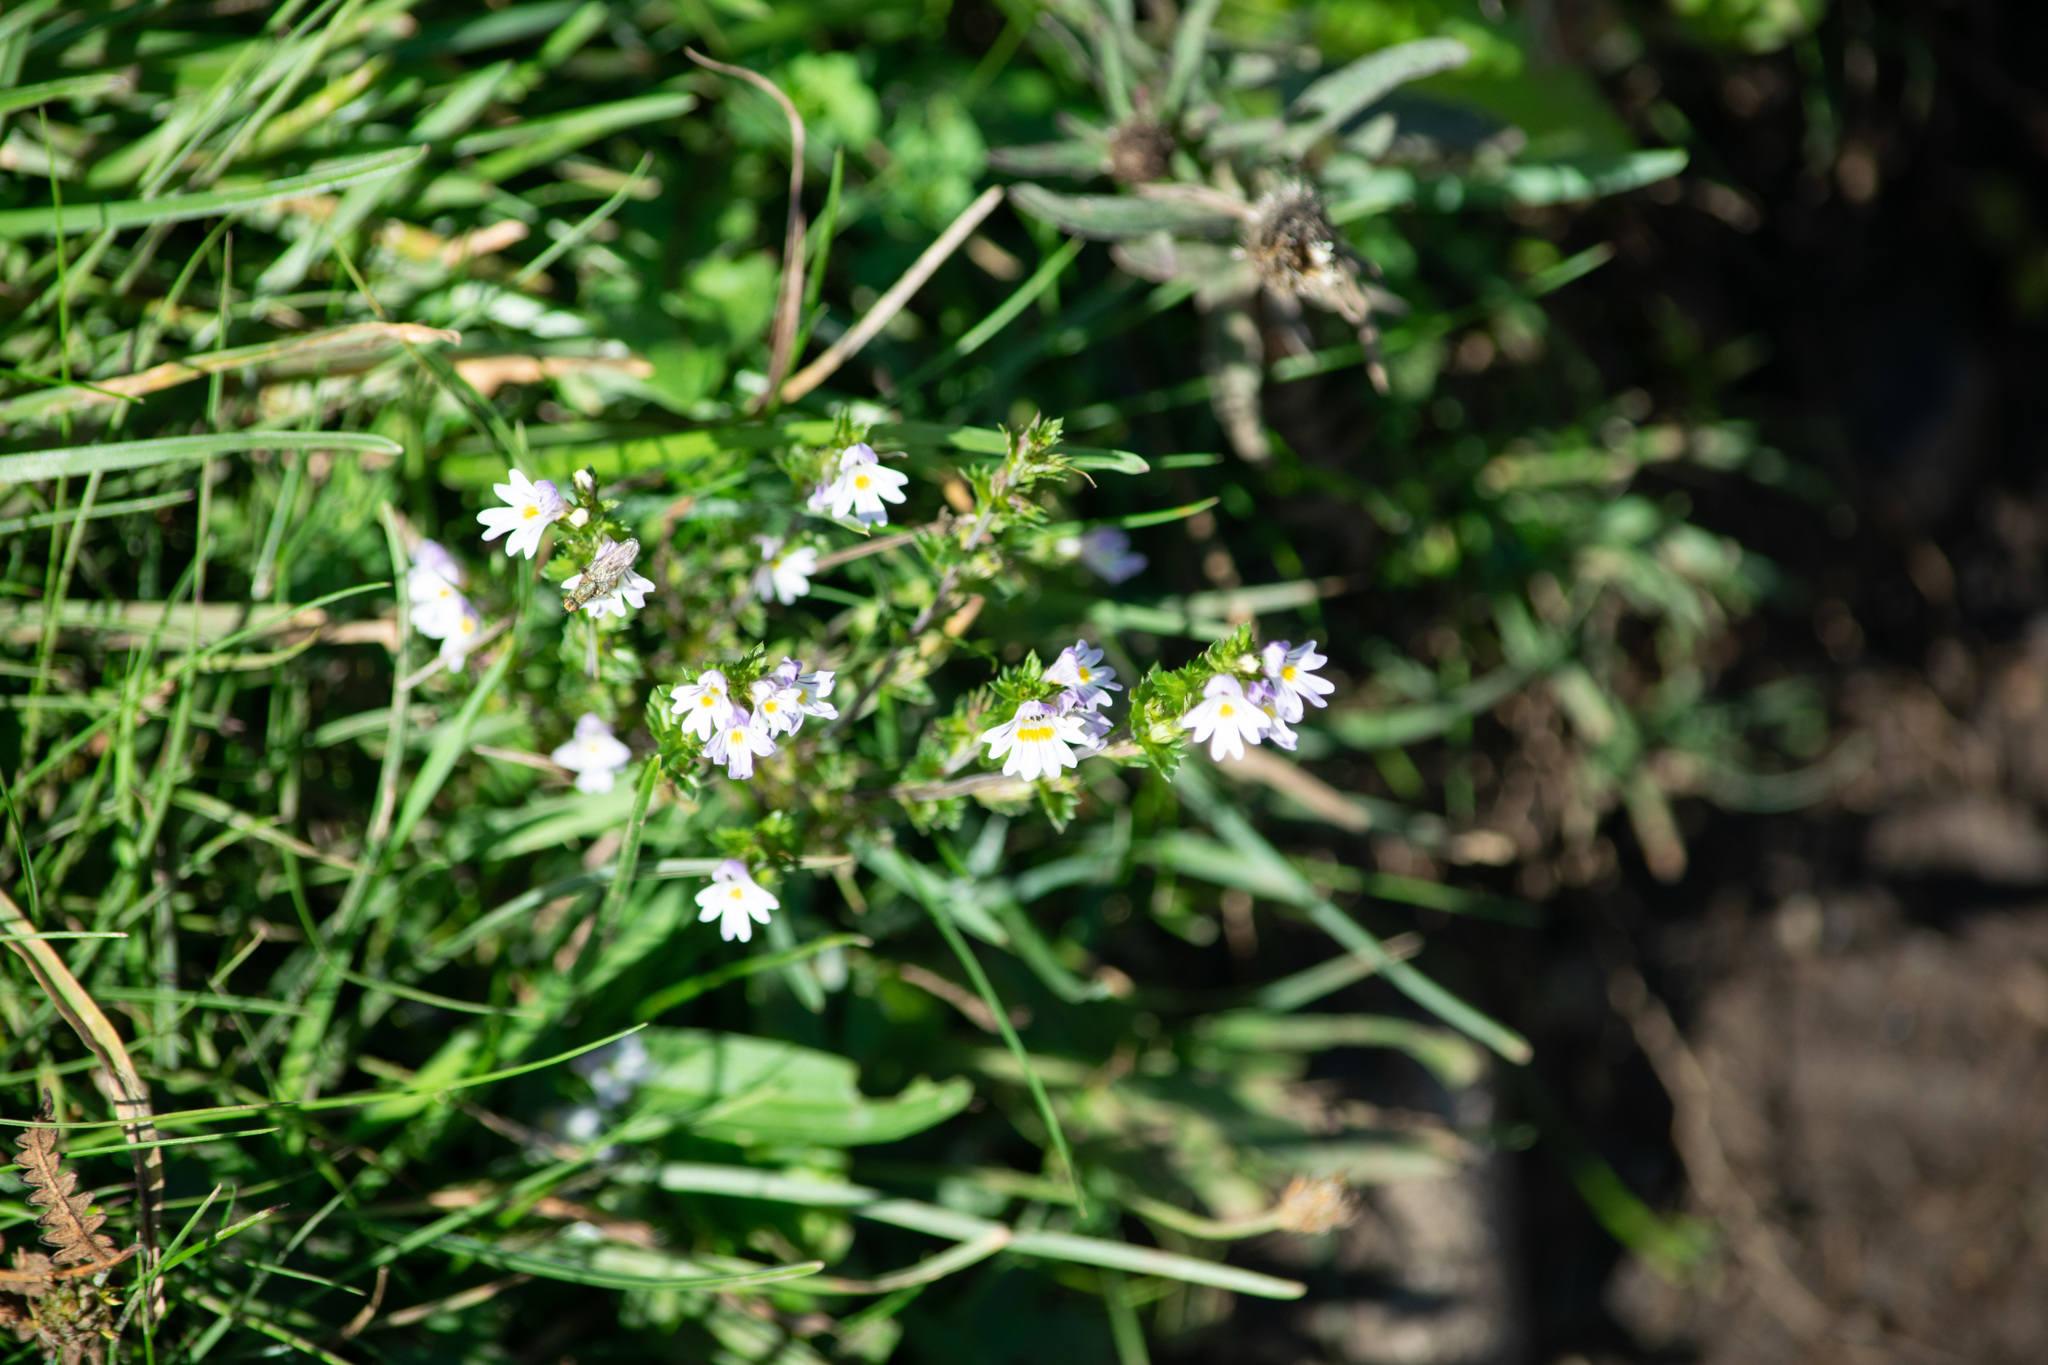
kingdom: Plantae
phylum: Tracheophyta
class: Magnoliopsida
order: Lamiales
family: Orobanchaceae
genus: Euphrasia
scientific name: Euphrasia nemorosa
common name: Common eyebright
